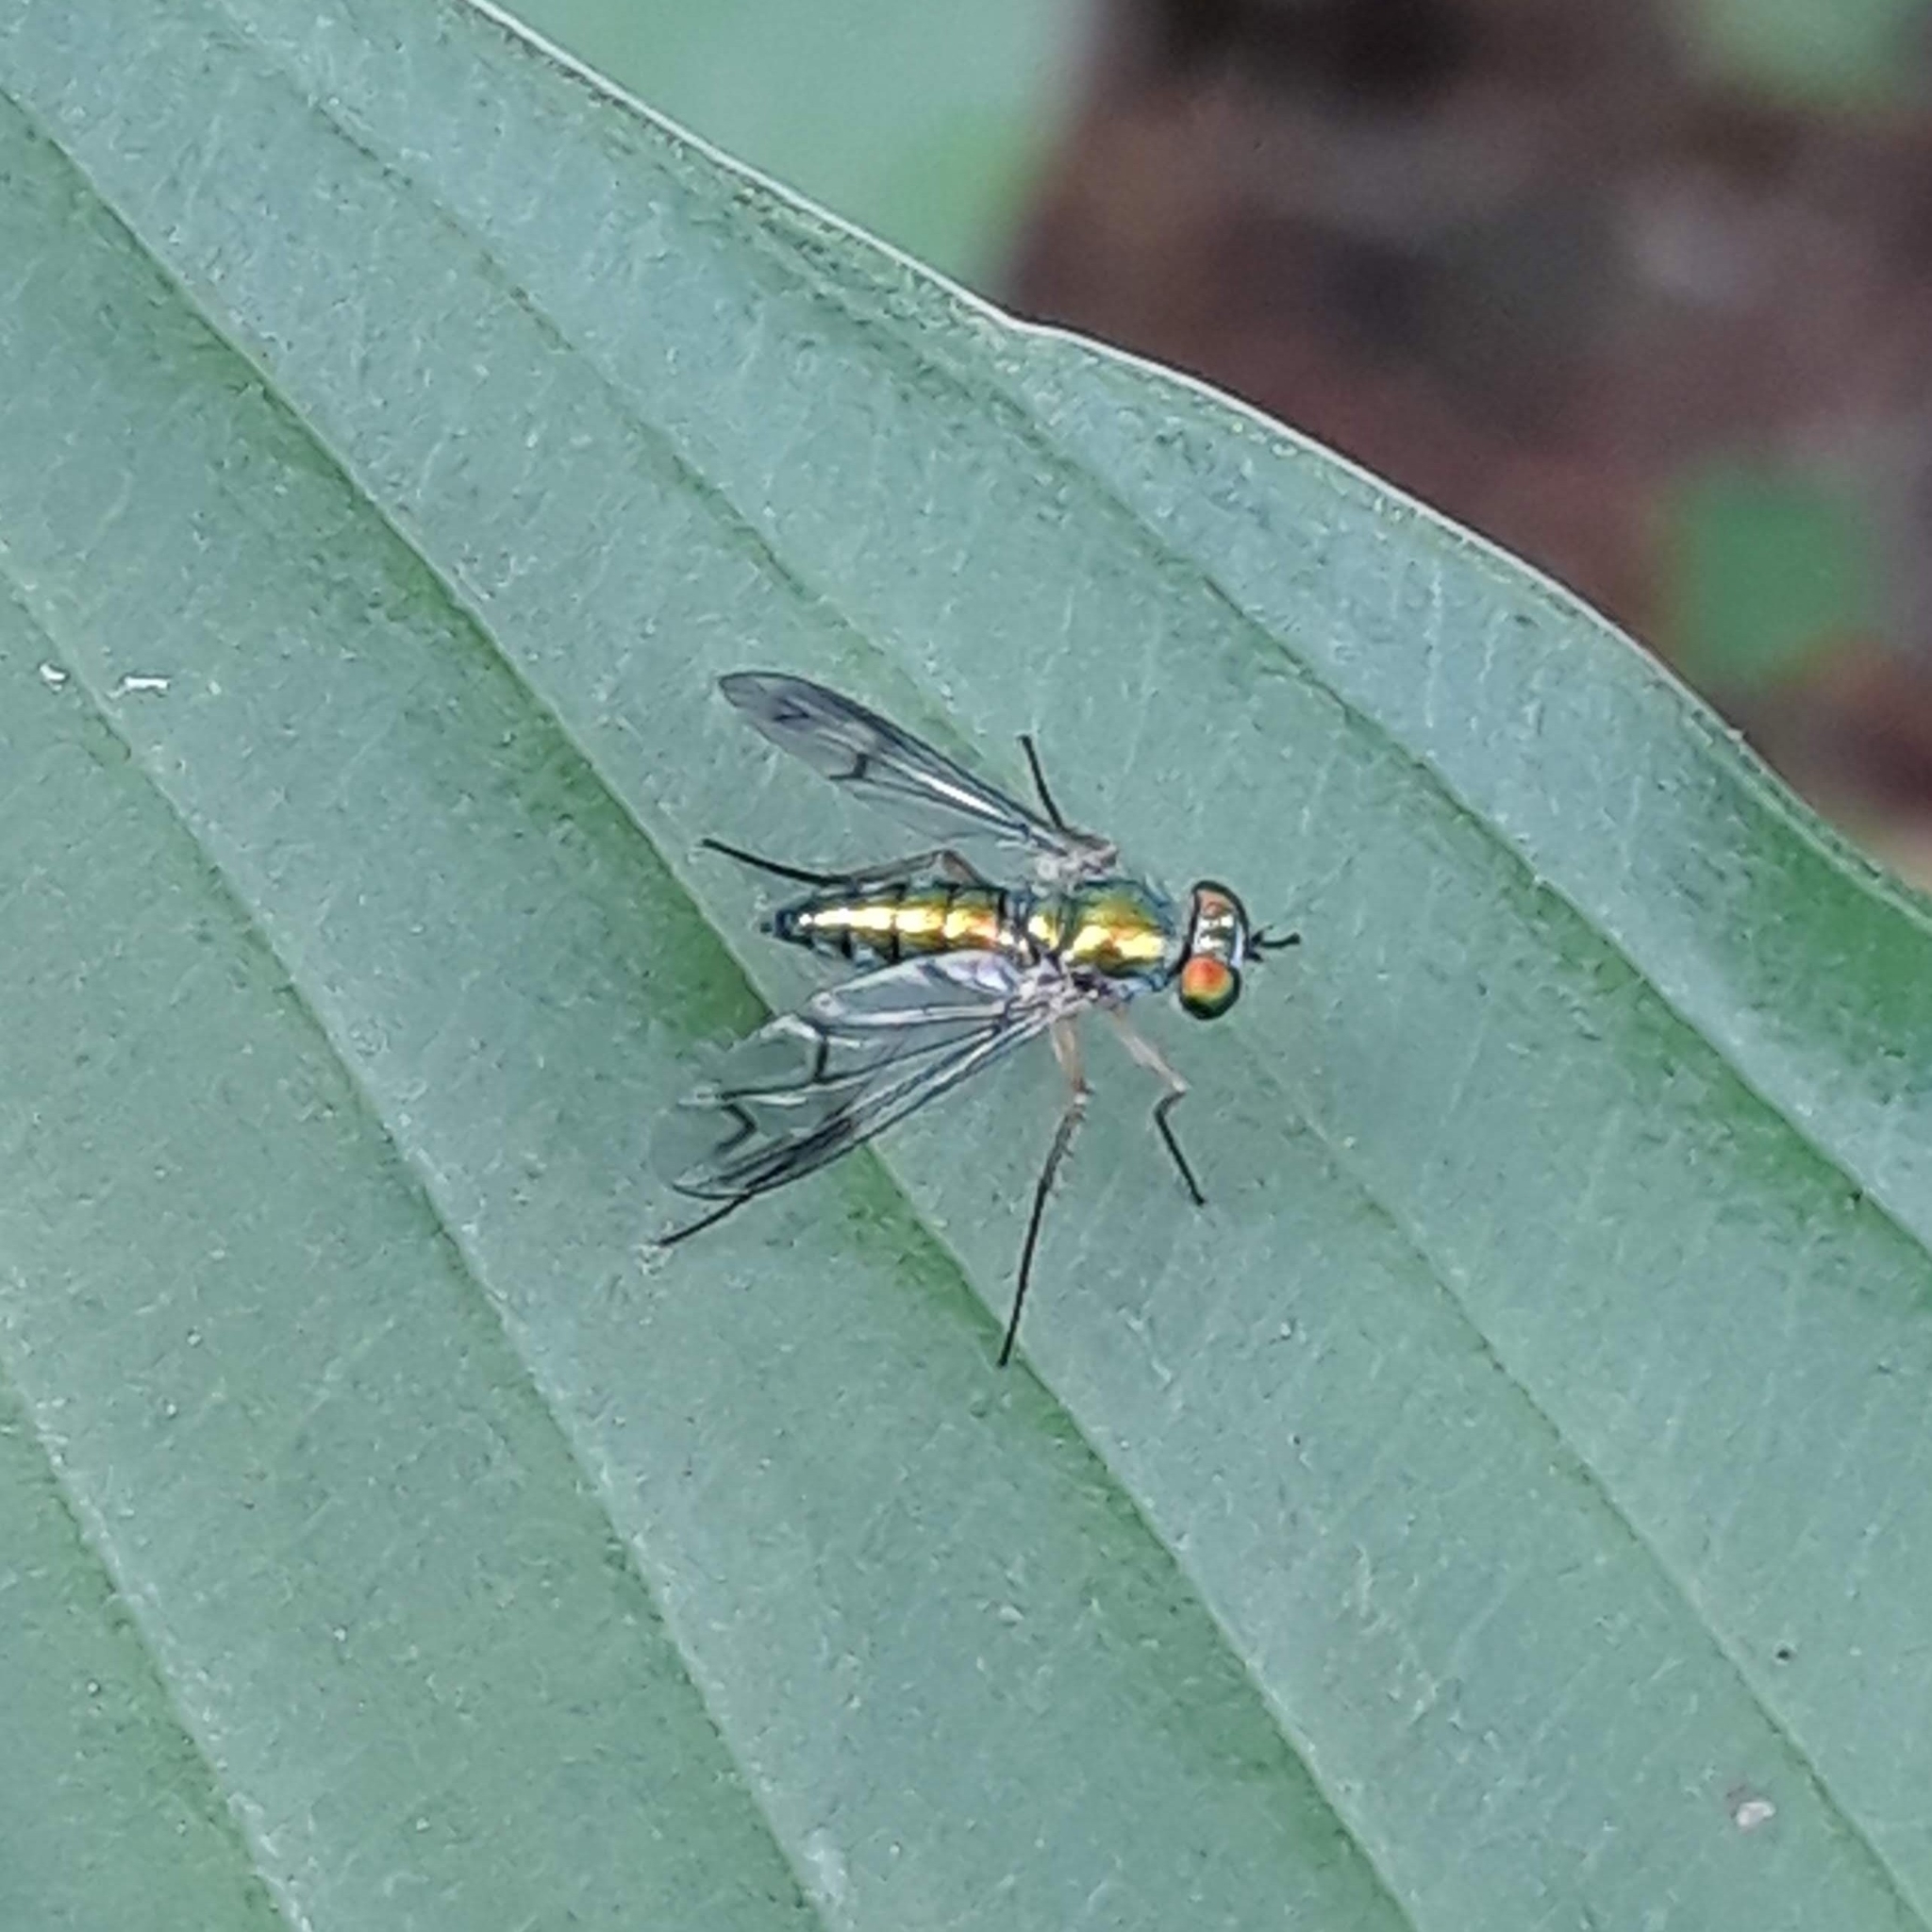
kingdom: Animalia
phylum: Arthropoda
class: Insecta
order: Diptera
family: Dolichopodidae
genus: Condylostylus
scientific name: Condylostylus
